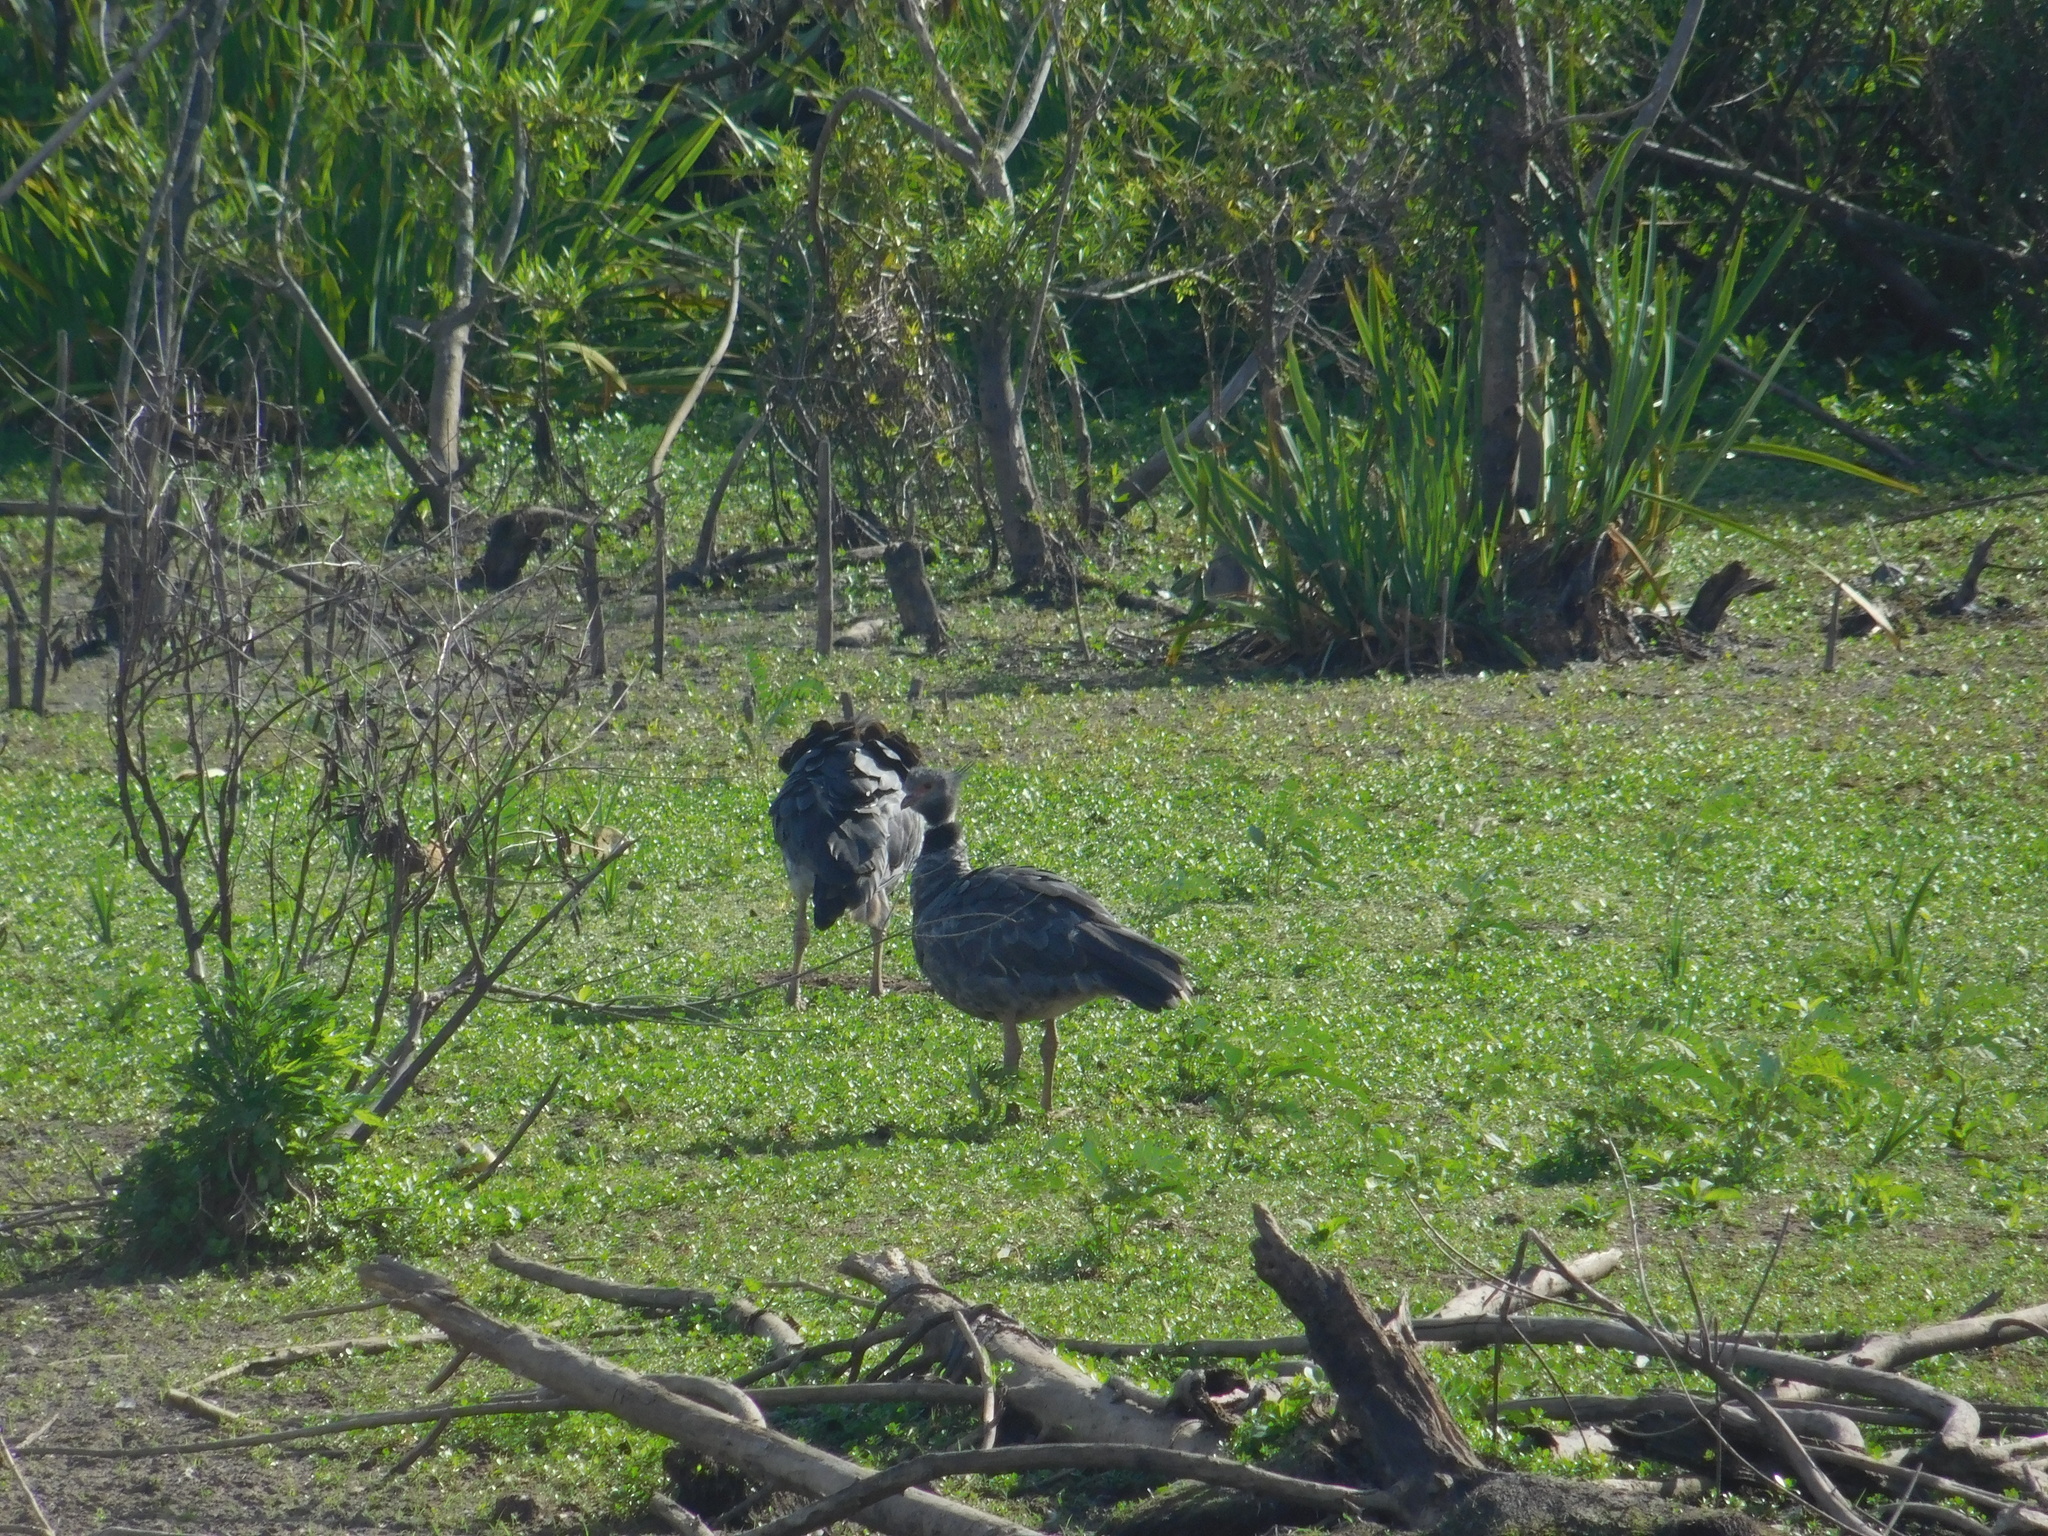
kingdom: Animalia
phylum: Chordata
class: Aves
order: Anseriformes
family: Anhimidae
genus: Chauna
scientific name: Chauna torquata
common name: Southern screamer
